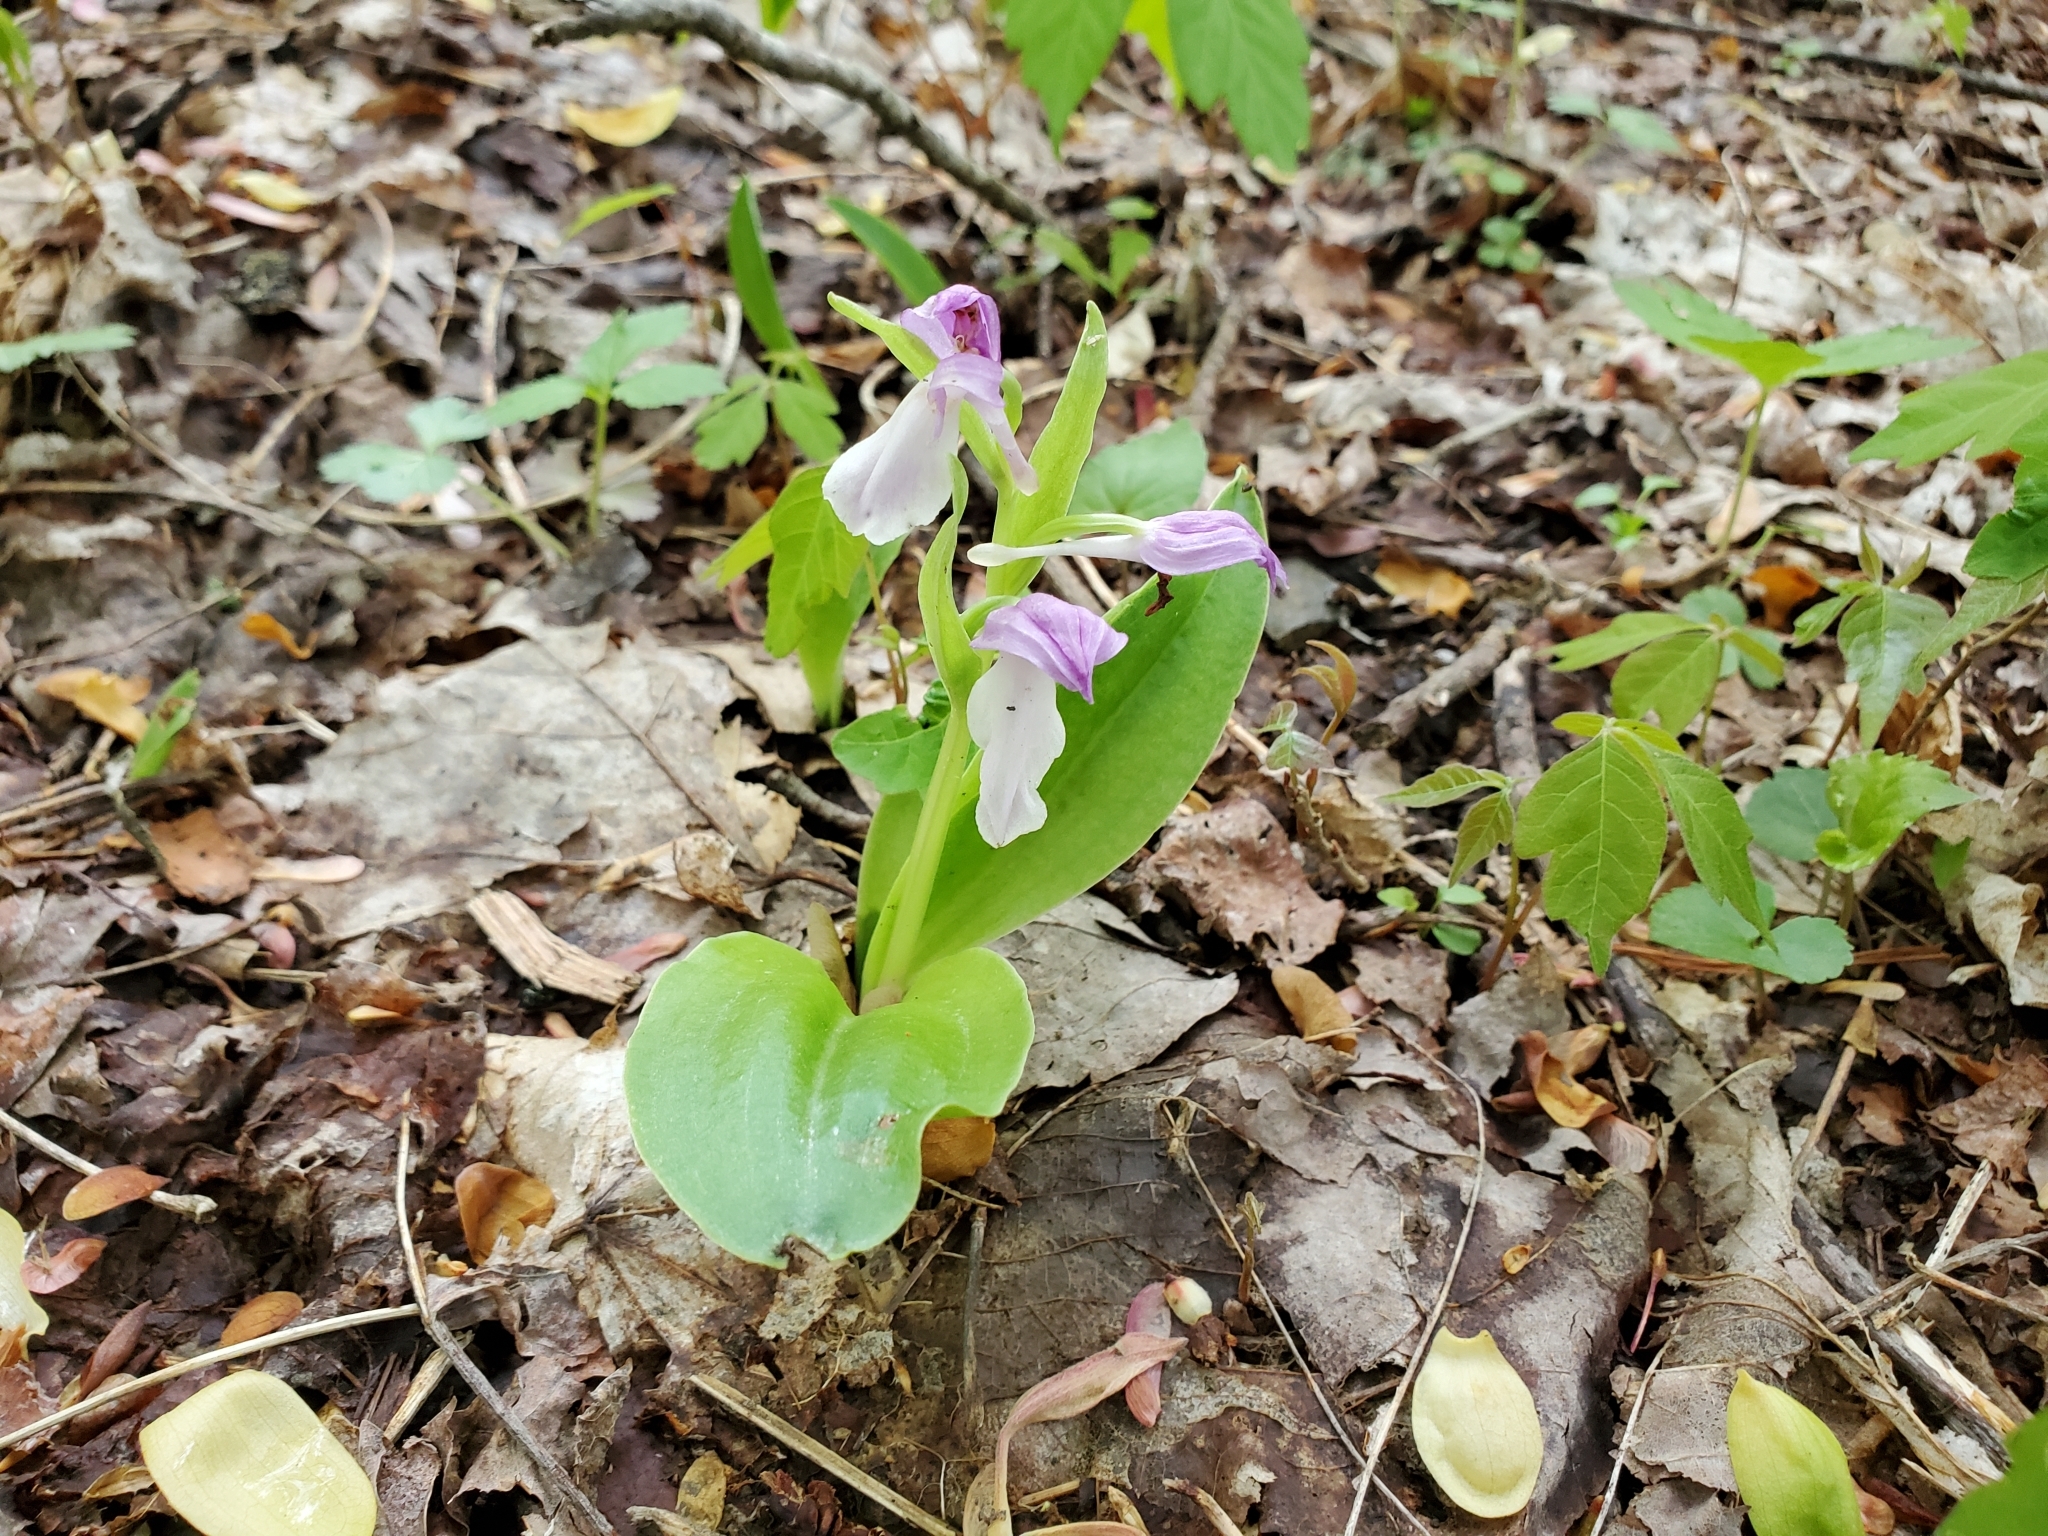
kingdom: Plantae
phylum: Tracheophyta
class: Liliopsida
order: Asparagales
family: Orchidaceae
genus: Galearis
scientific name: Galearis spectabilis
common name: Purple-hooded orchis
